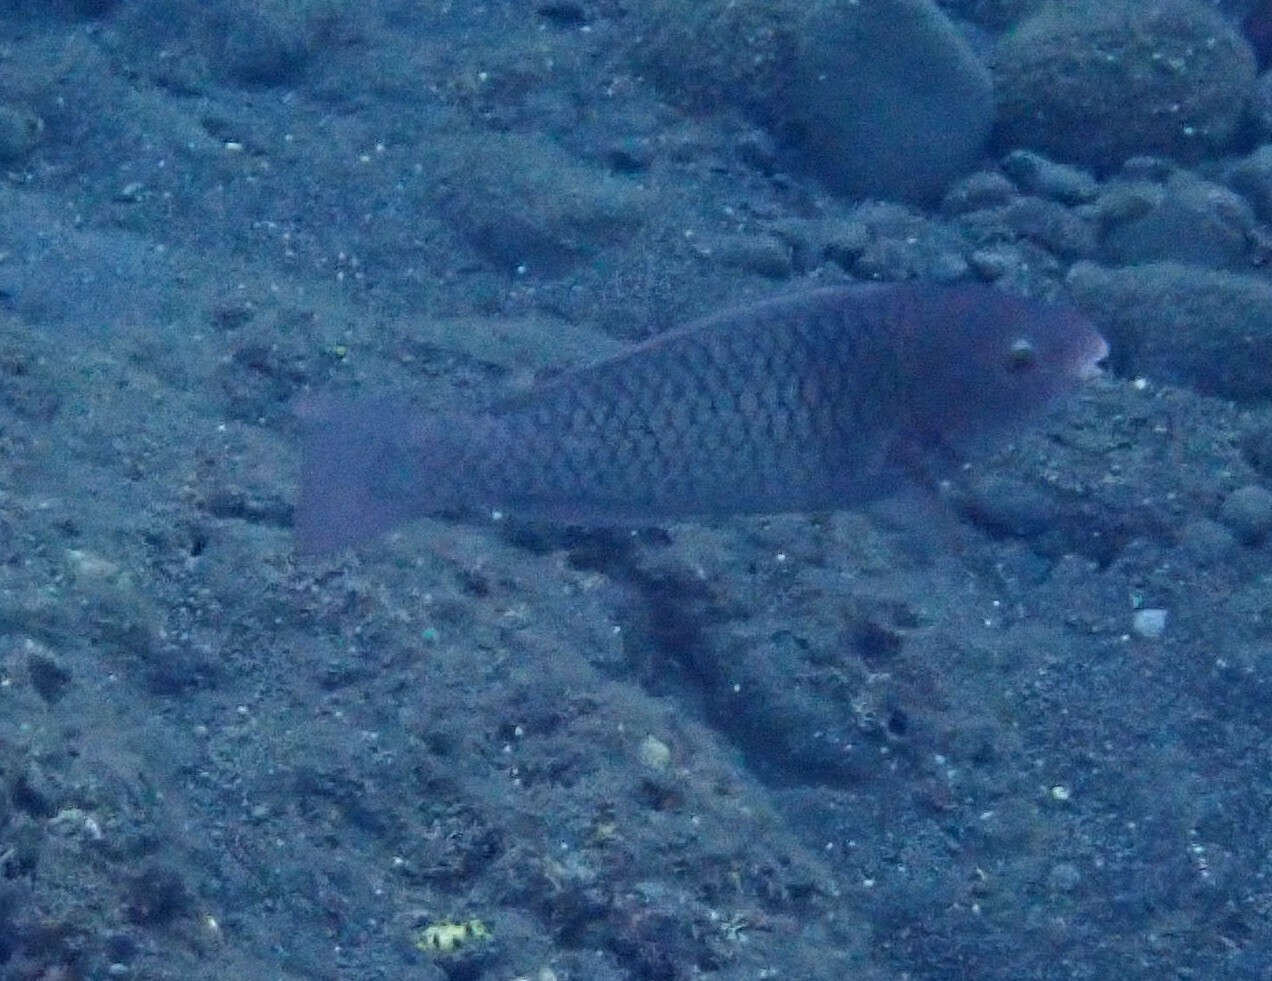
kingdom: Animalia
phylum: Chordata
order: Perciformes
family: Scaridae
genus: Scarus
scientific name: Scarus rubroviolaceus
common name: Ember parrotfish
